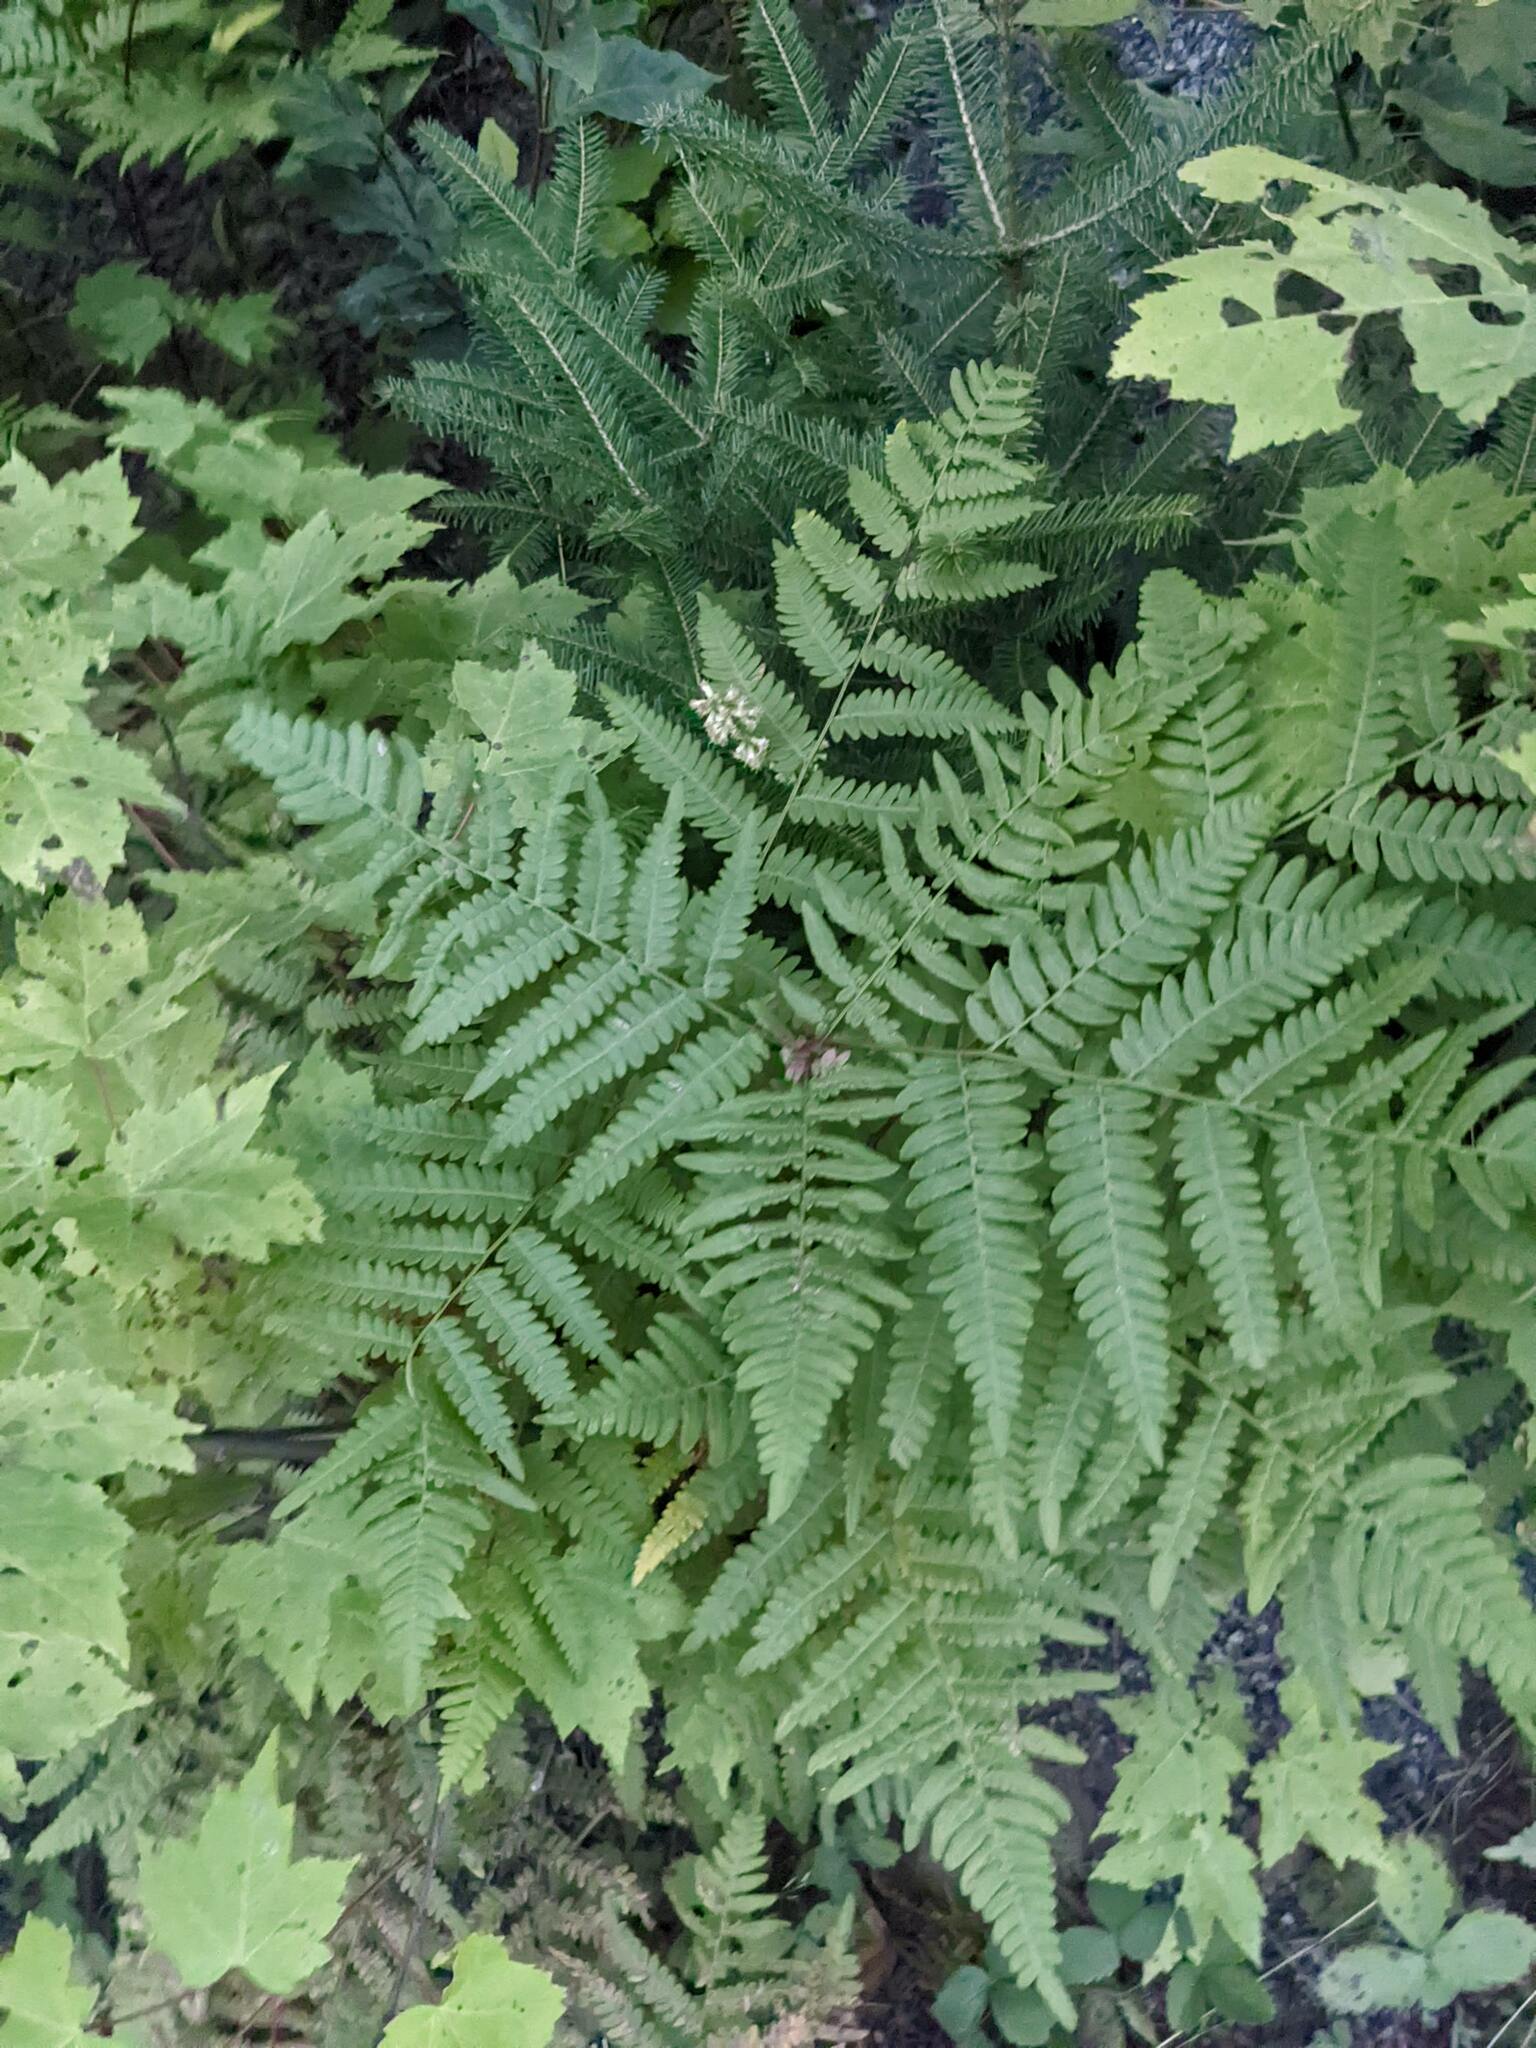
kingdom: Plantae
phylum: Tracheophyta
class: Polypodiopsida
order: Polypodiales
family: Dennstaedtiaceae
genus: Pteridium
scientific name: Pteridium aquilinum
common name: Bracken
